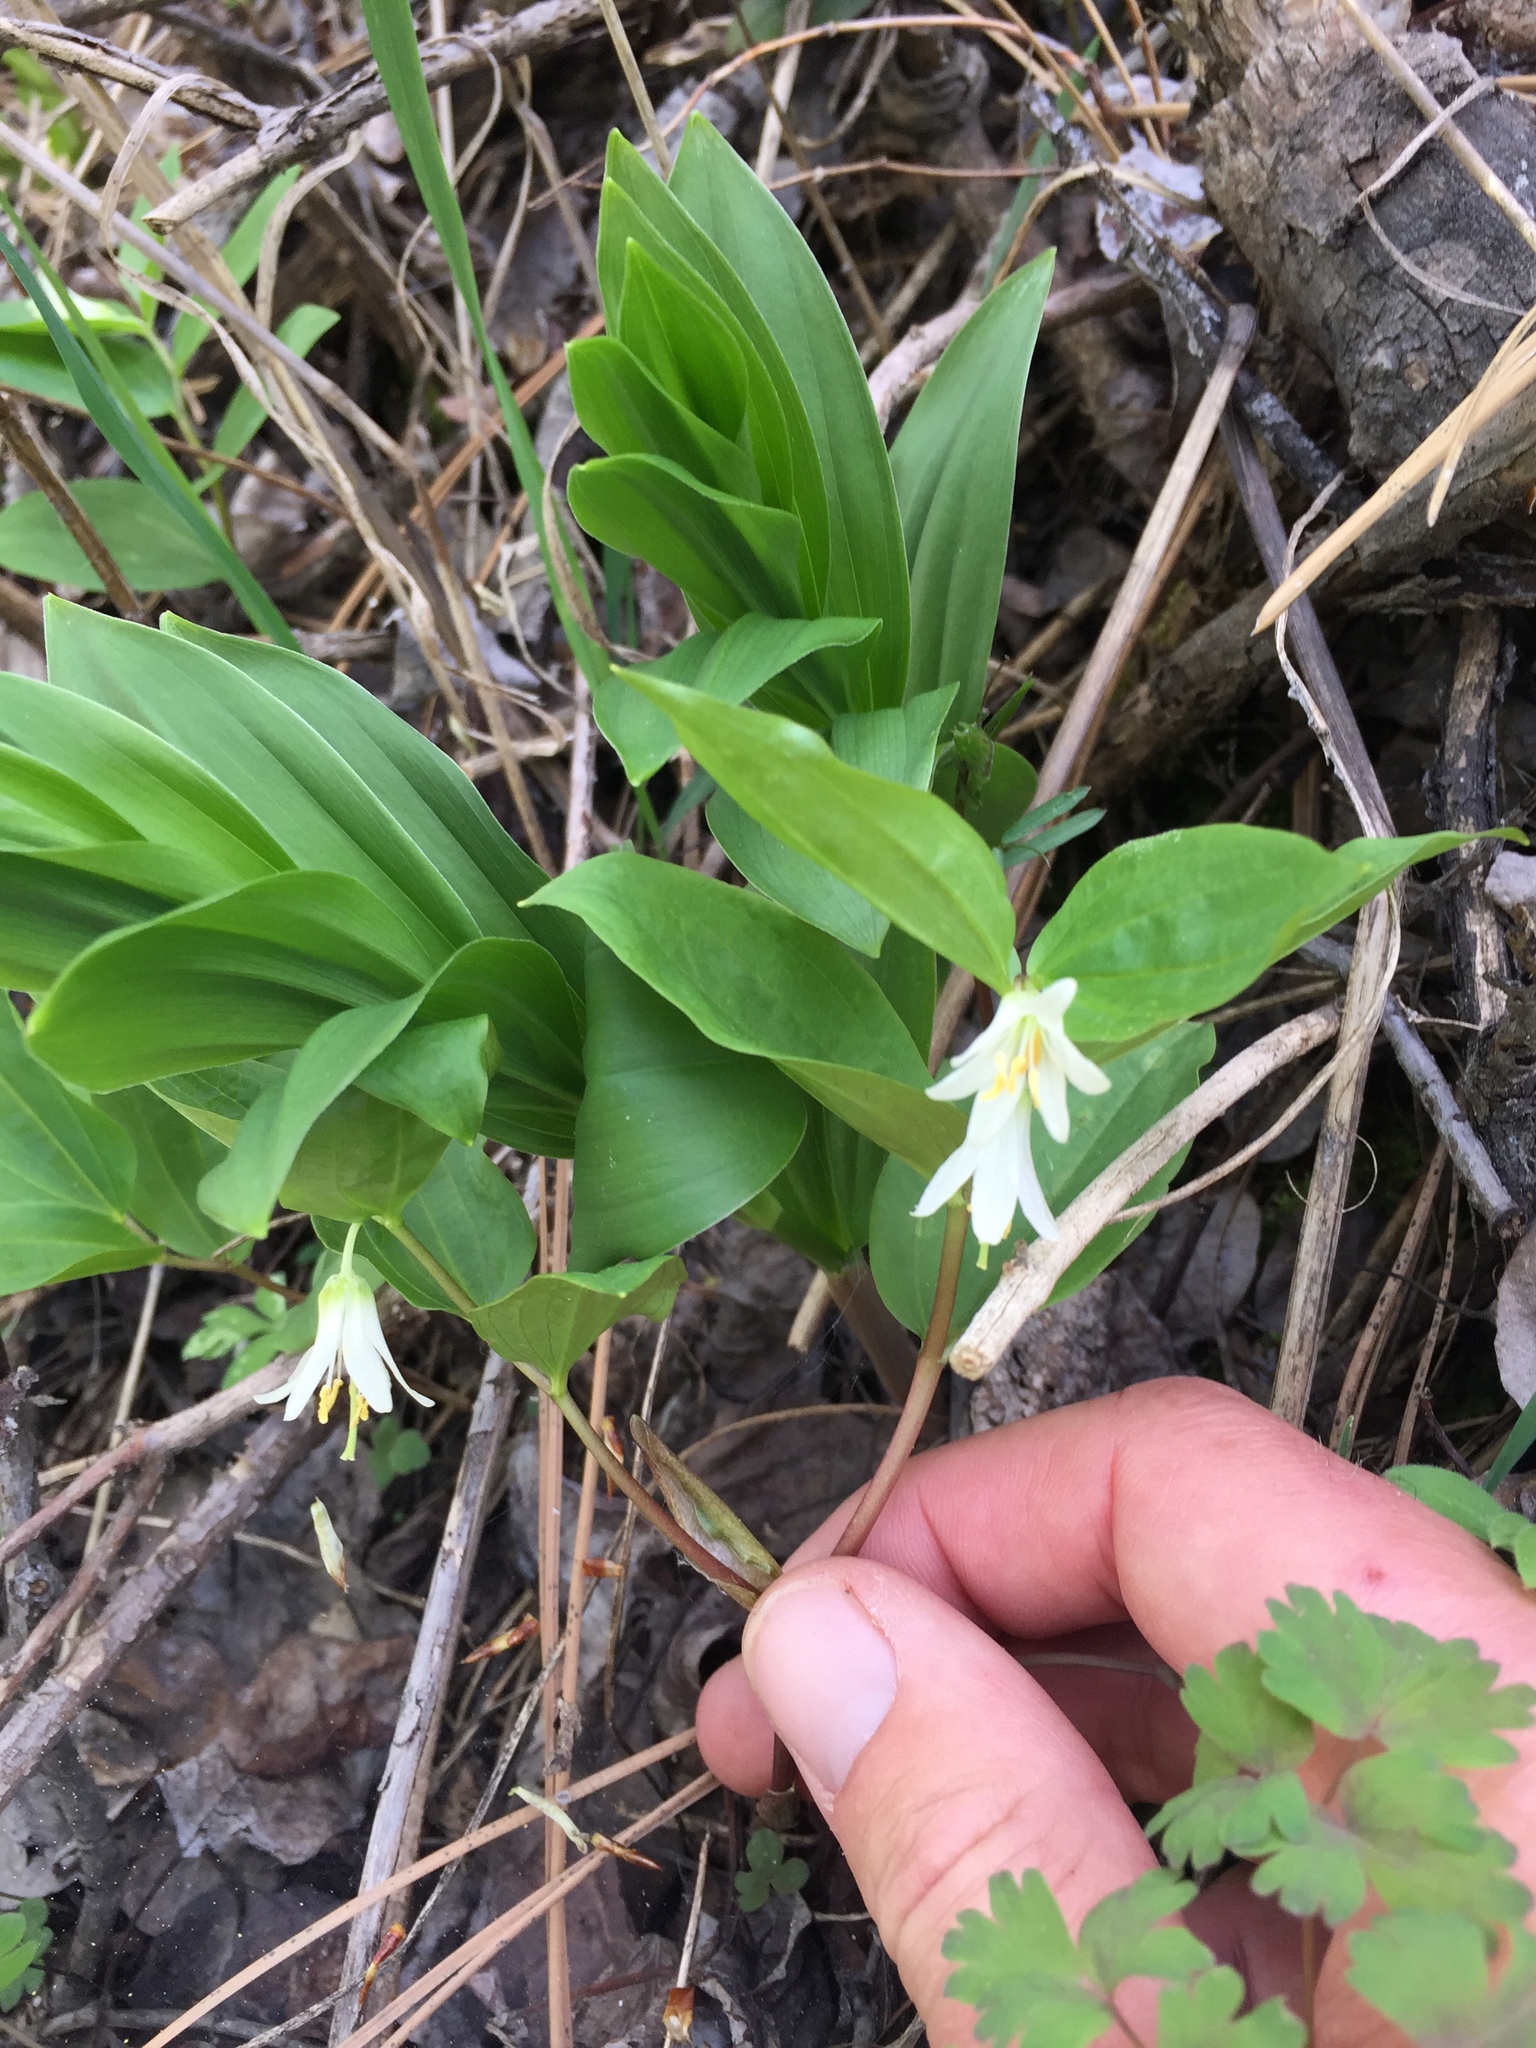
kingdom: Plantae
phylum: Tracheophyta
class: Liliopsida
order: Liliales
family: Liliaceae
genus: Prosartes
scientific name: Prosartes trachycarpa
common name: Rough-fruit fairy-bells
